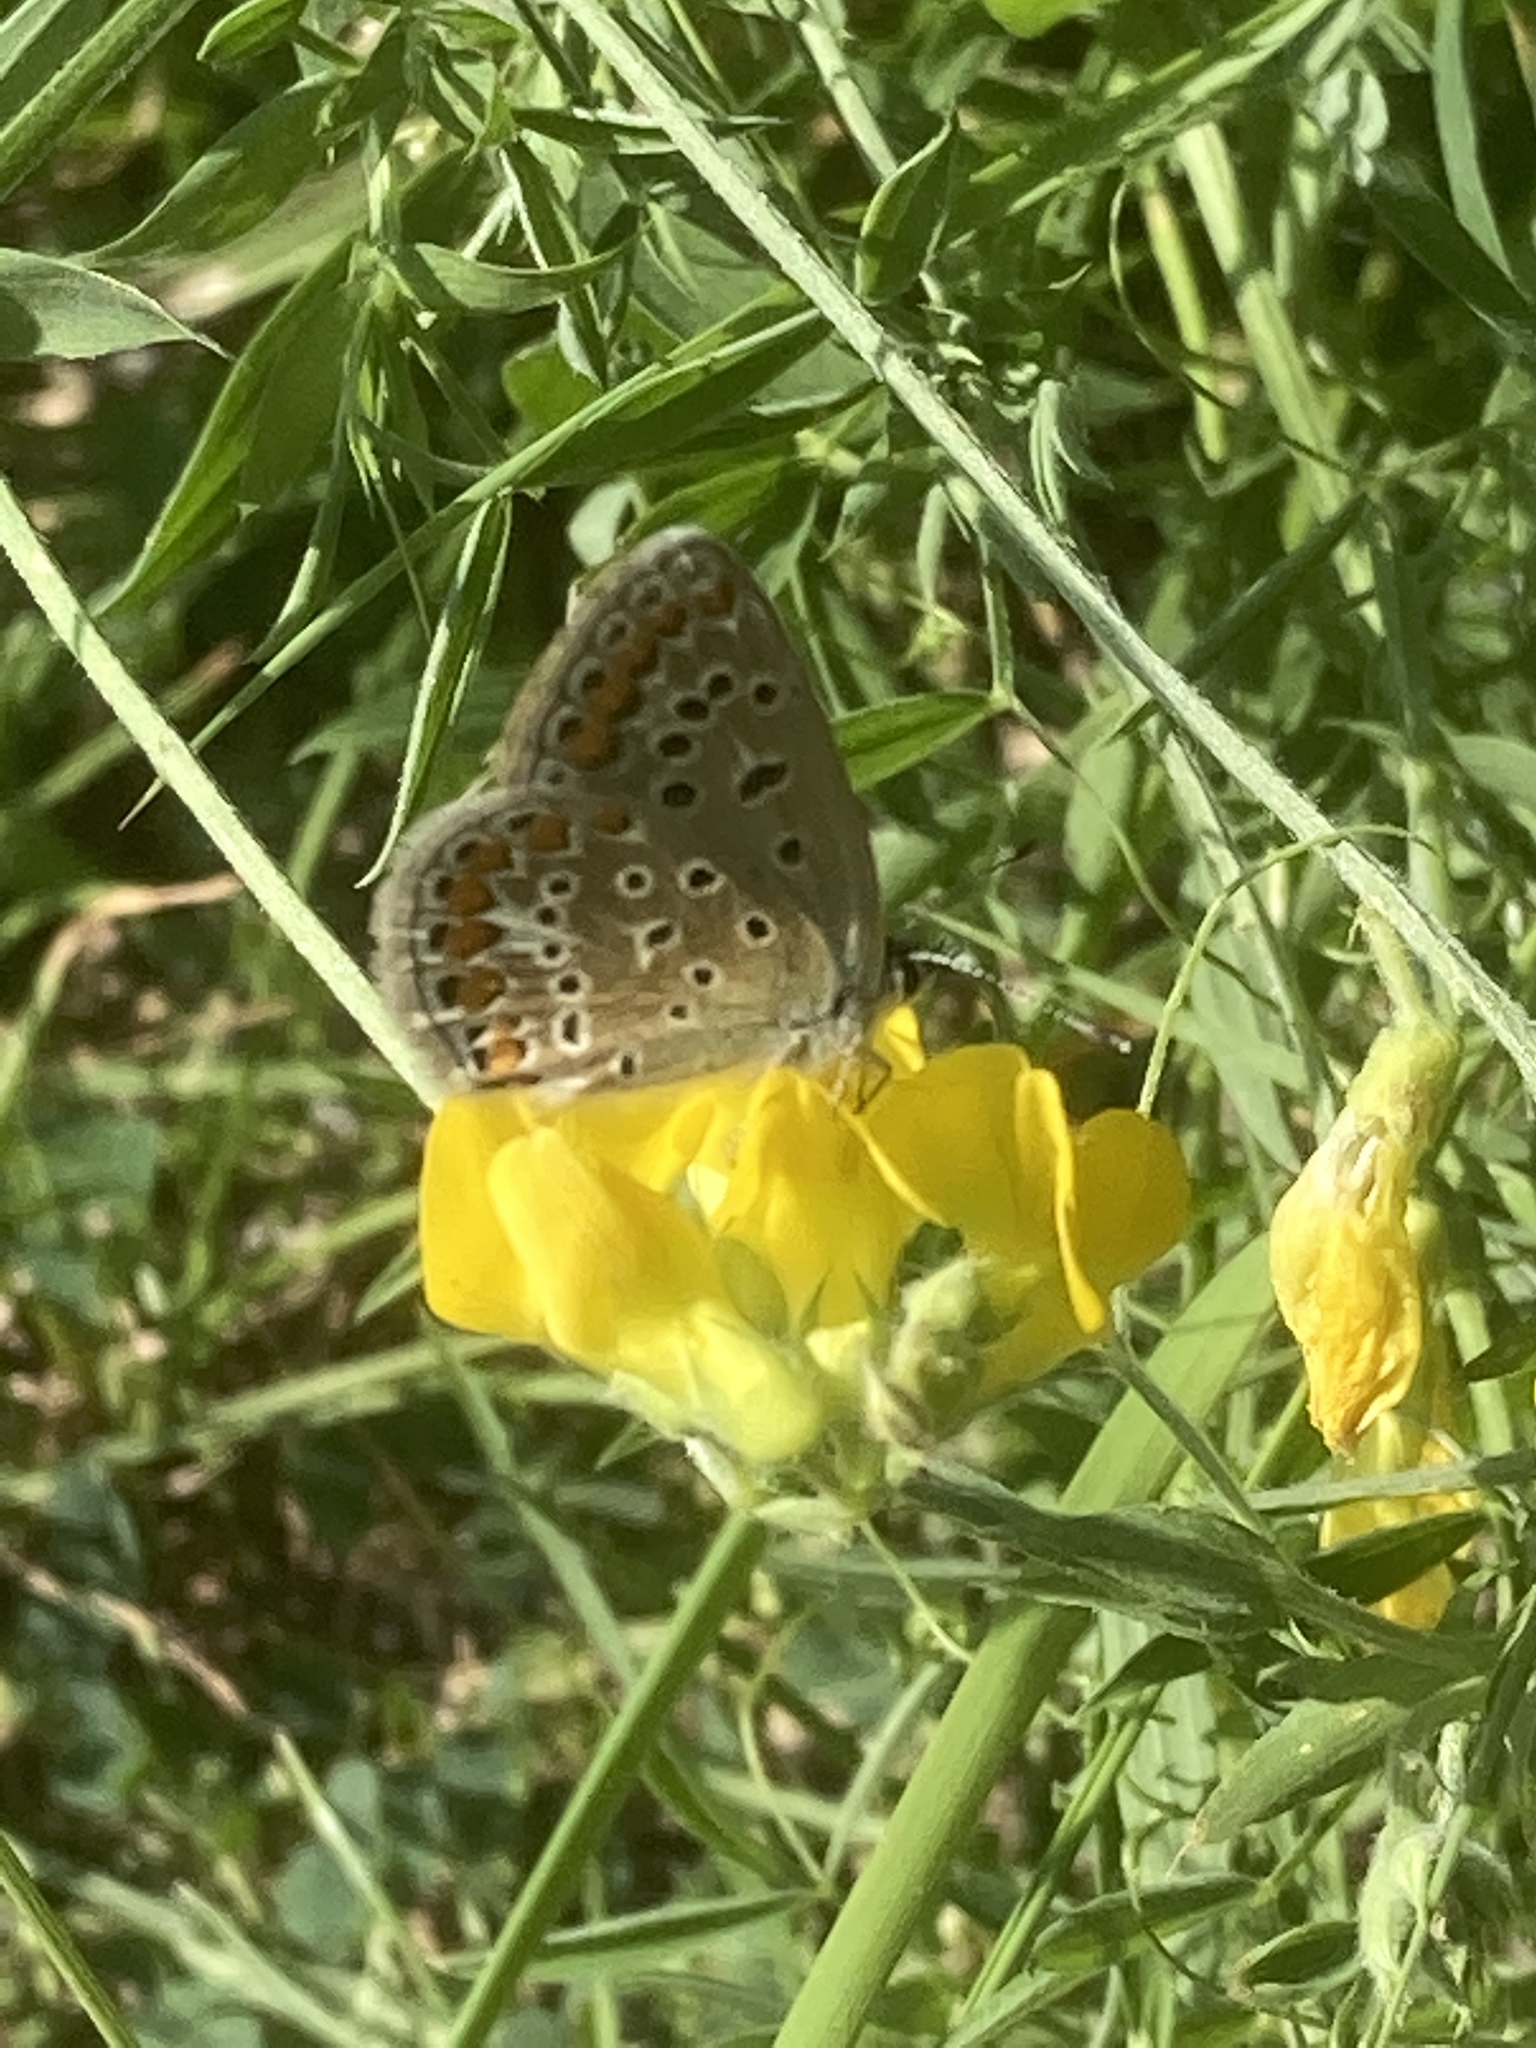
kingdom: Animalia
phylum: Arthropoda
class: Insecta
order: Lepidoptera
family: Lycaenidae
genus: Polyommatus
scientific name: Polyommatus icarus
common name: Common blue
